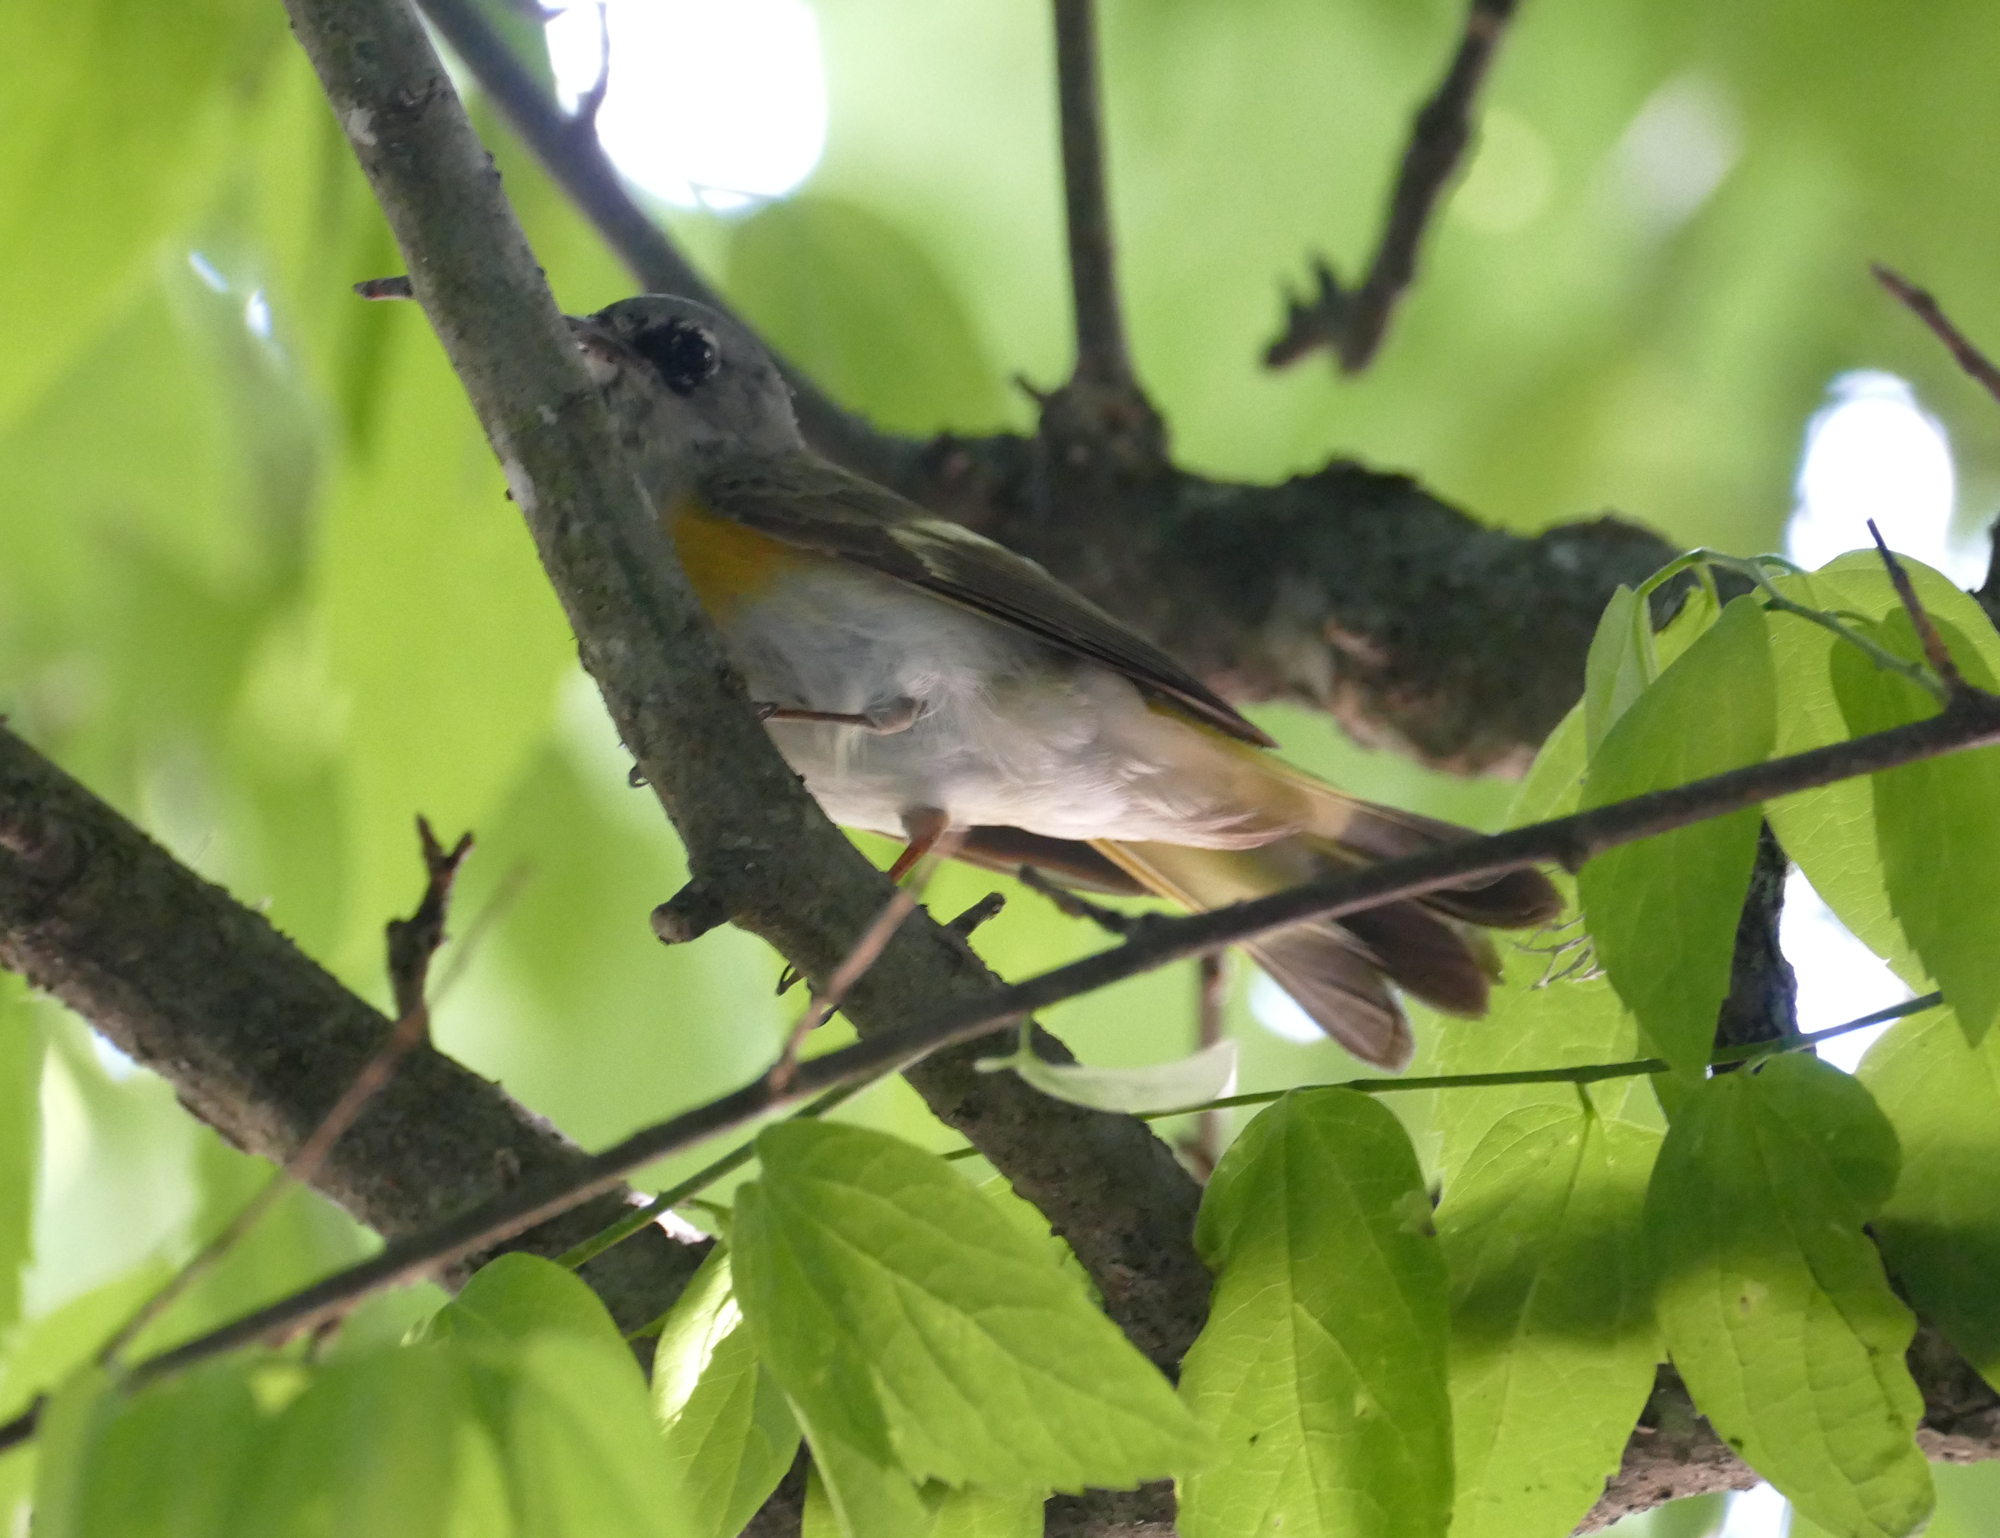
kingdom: Animalia
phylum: Chordata
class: Aves
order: Passeriformes
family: Parulidae
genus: Setophaga
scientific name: Setophaga ruticilla
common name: American redstart
